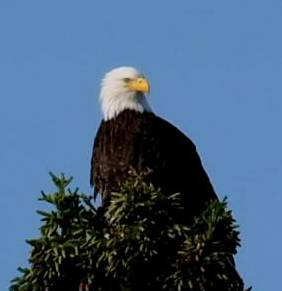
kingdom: Animalia
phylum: Chordata
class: Aves
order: Accipitriformes
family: Accipitridae
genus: Haliaeetus
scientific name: Haliaeetus leucocephalus
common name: Bald eagle
